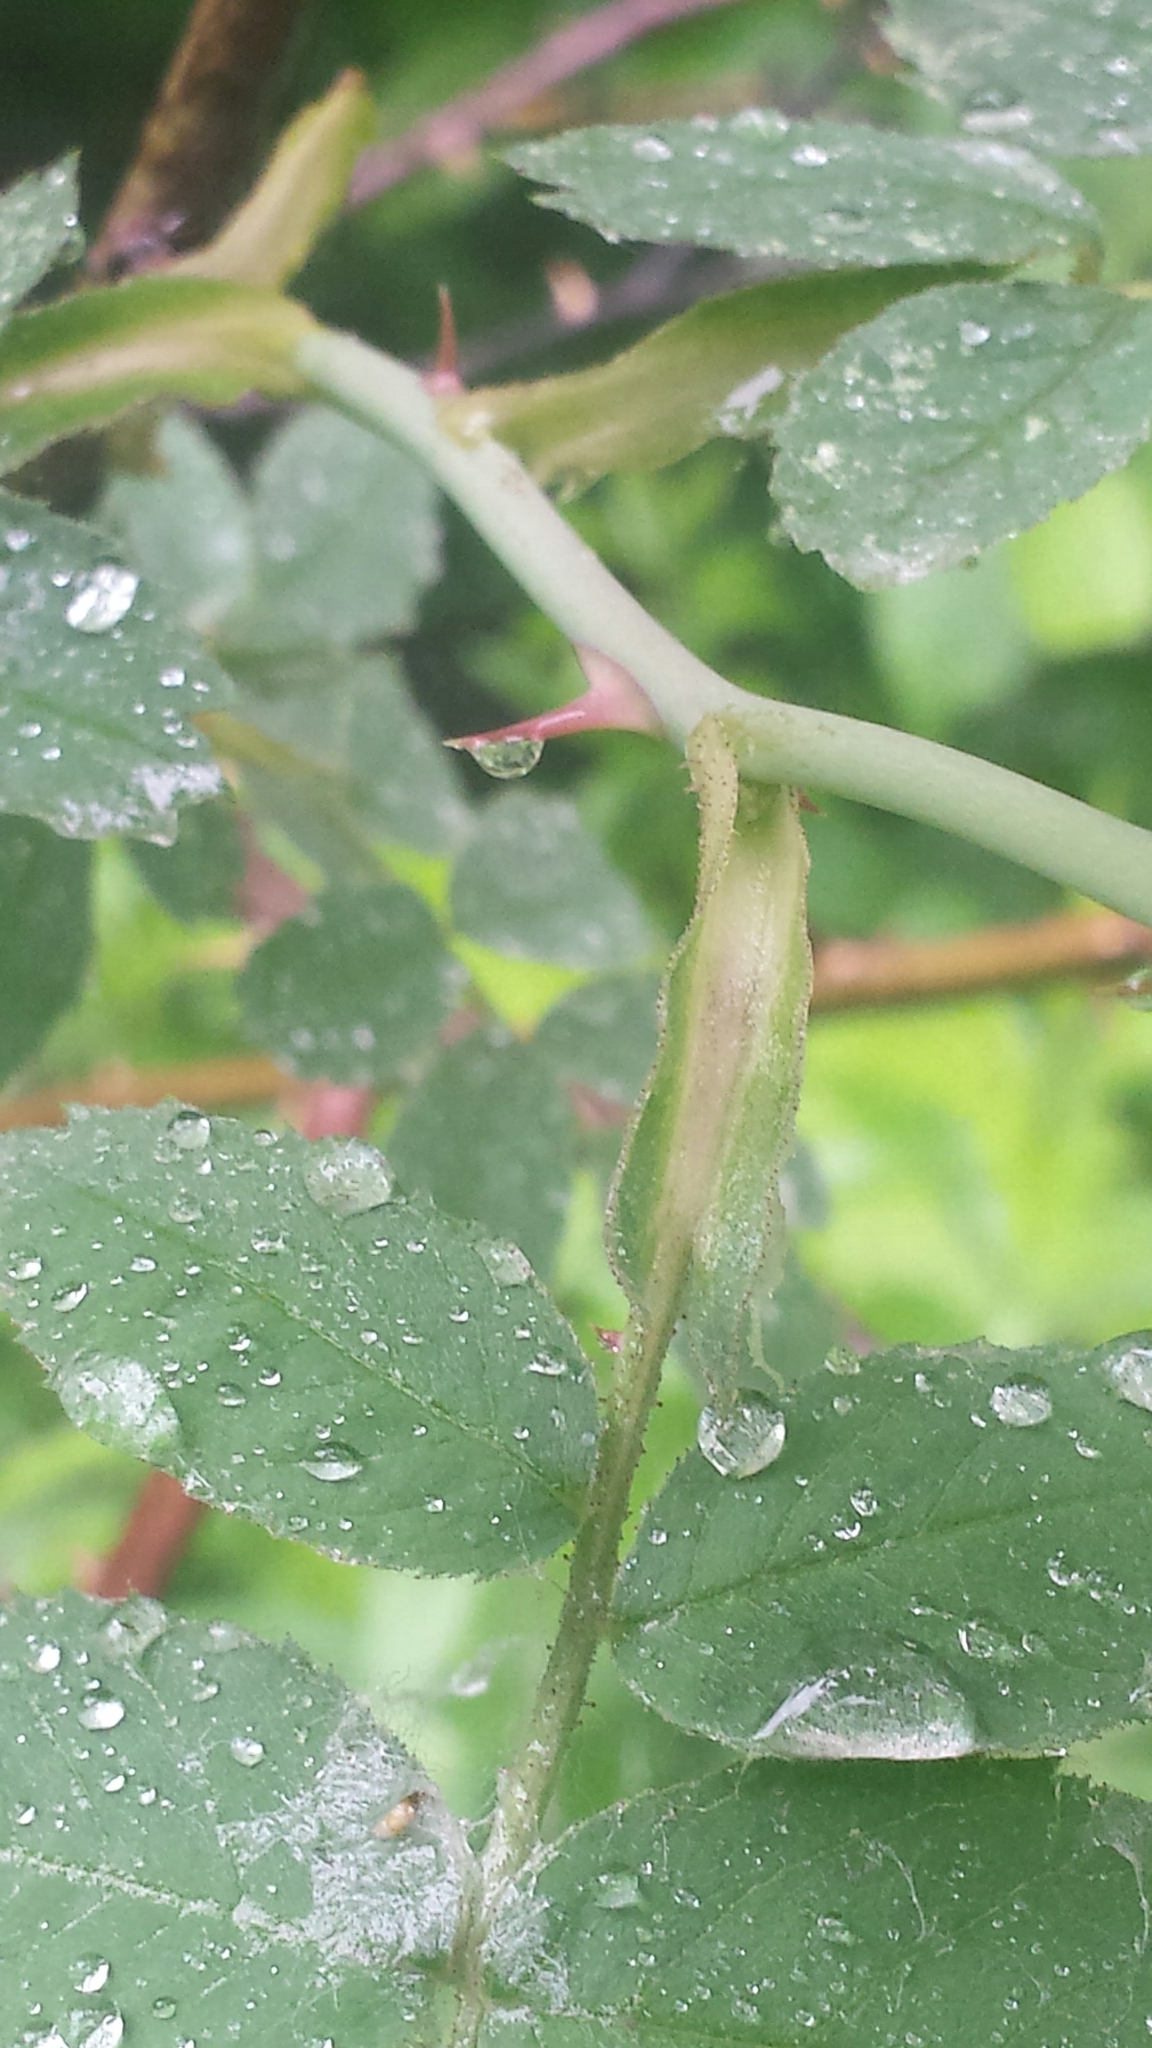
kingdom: Plantae
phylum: Tracheophyta
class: Magnoliopsida
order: Rosales
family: Rosaceae
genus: Rosa
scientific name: Rosa sherardii
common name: Sherard's downy rose
